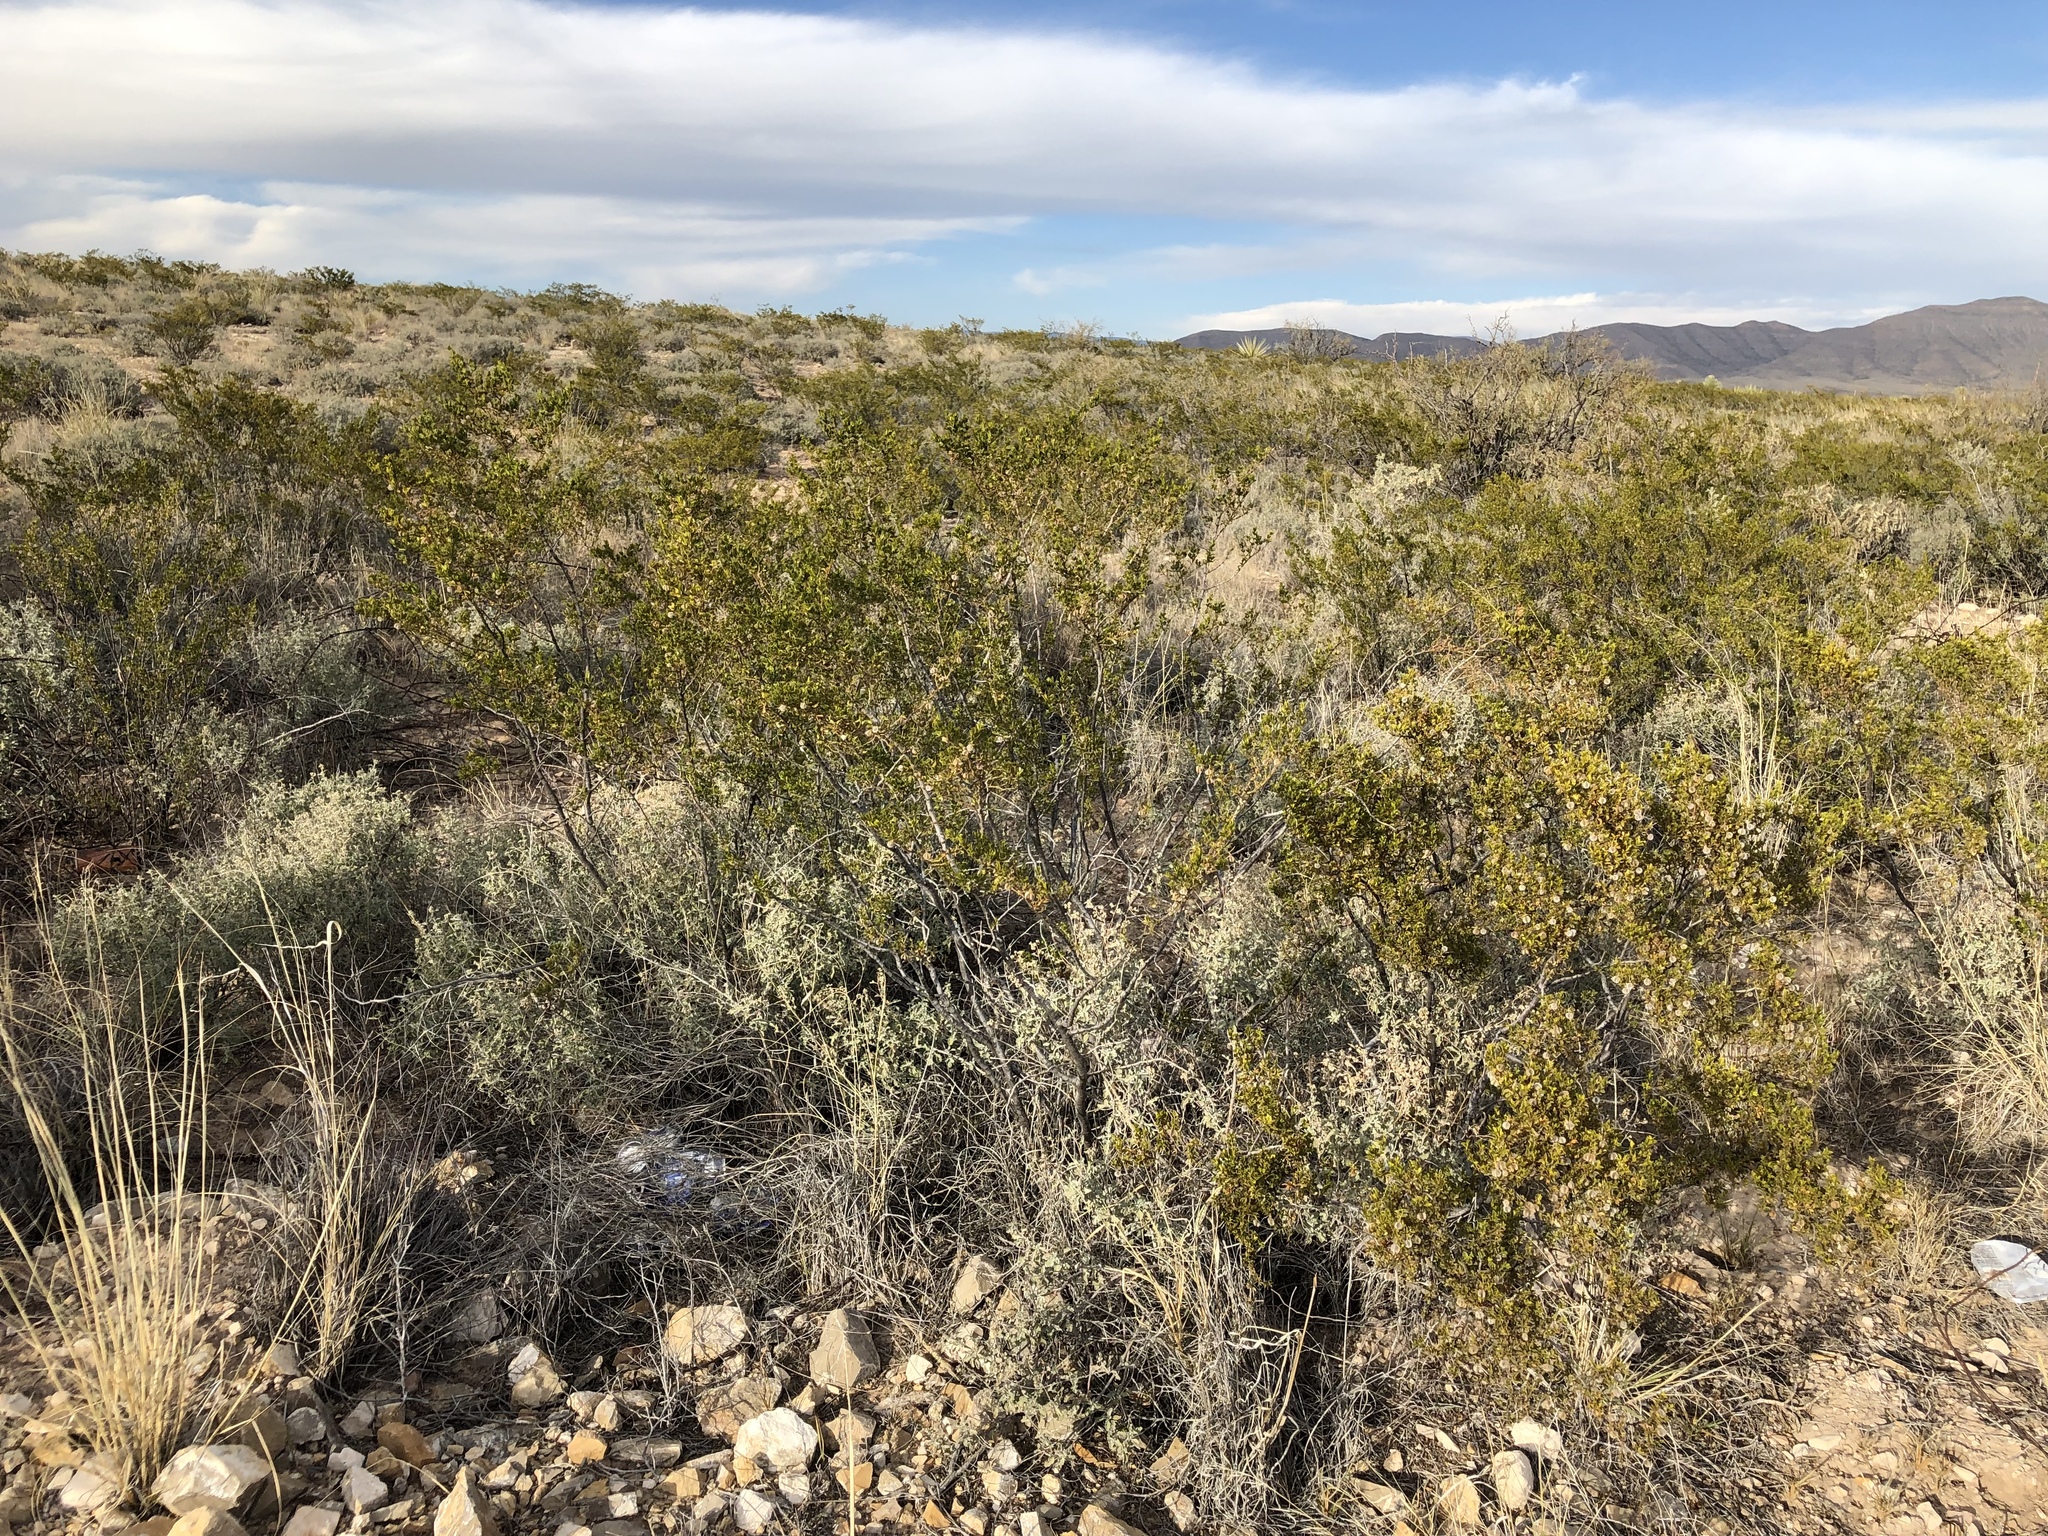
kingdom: Plantae
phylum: Tracheophyta
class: Magnoliopsida
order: Zygophyllales
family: Zygophyllaceae
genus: Larrea
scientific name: Larrea tridentata
